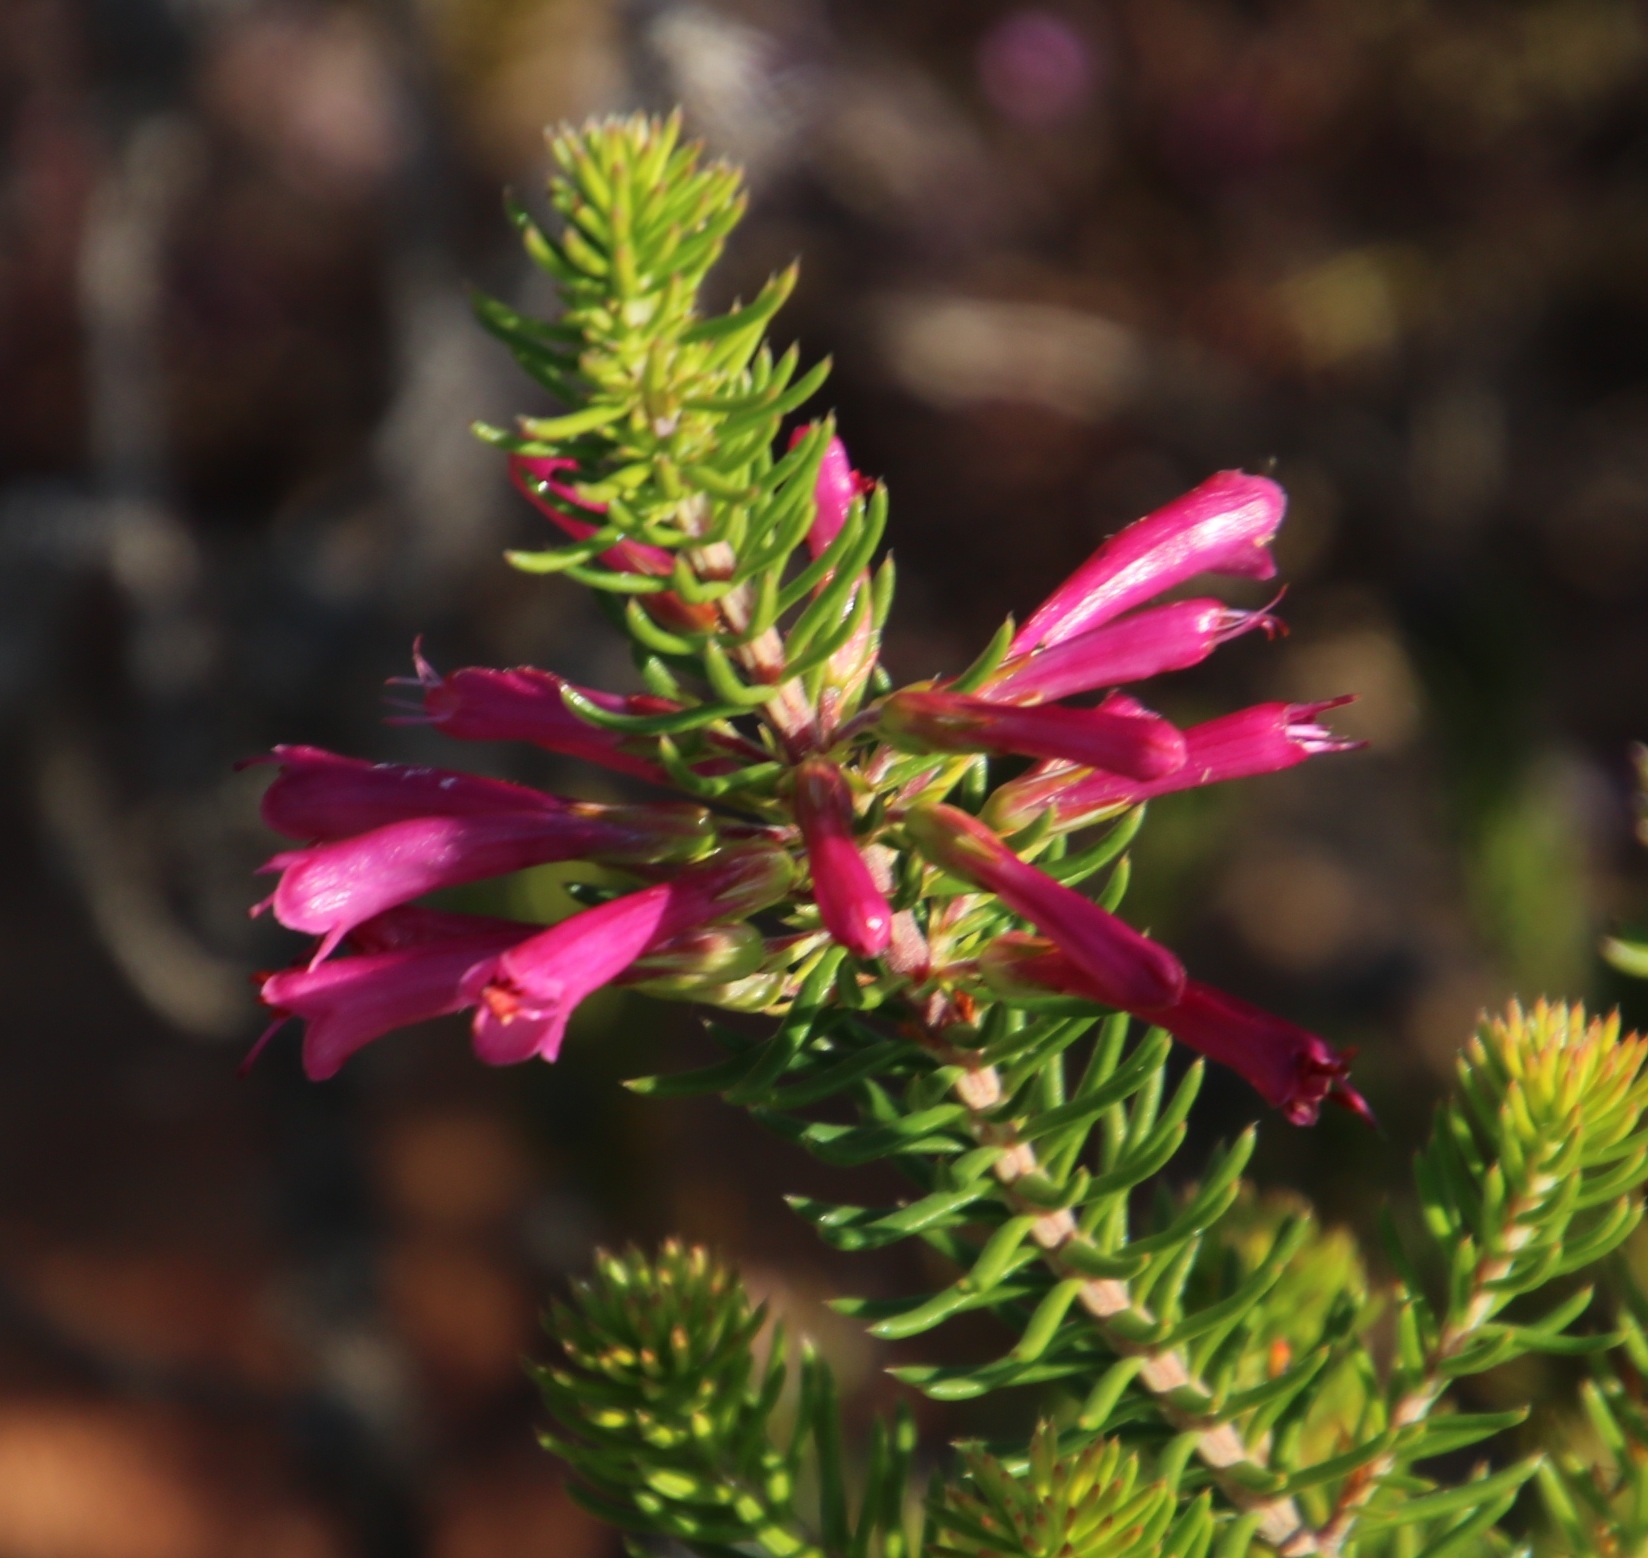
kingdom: Plantae
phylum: Tracheophyta
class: Magnoliopsida
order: Ericales
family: Ericaceae
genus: Erica
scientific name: Erica abietina
